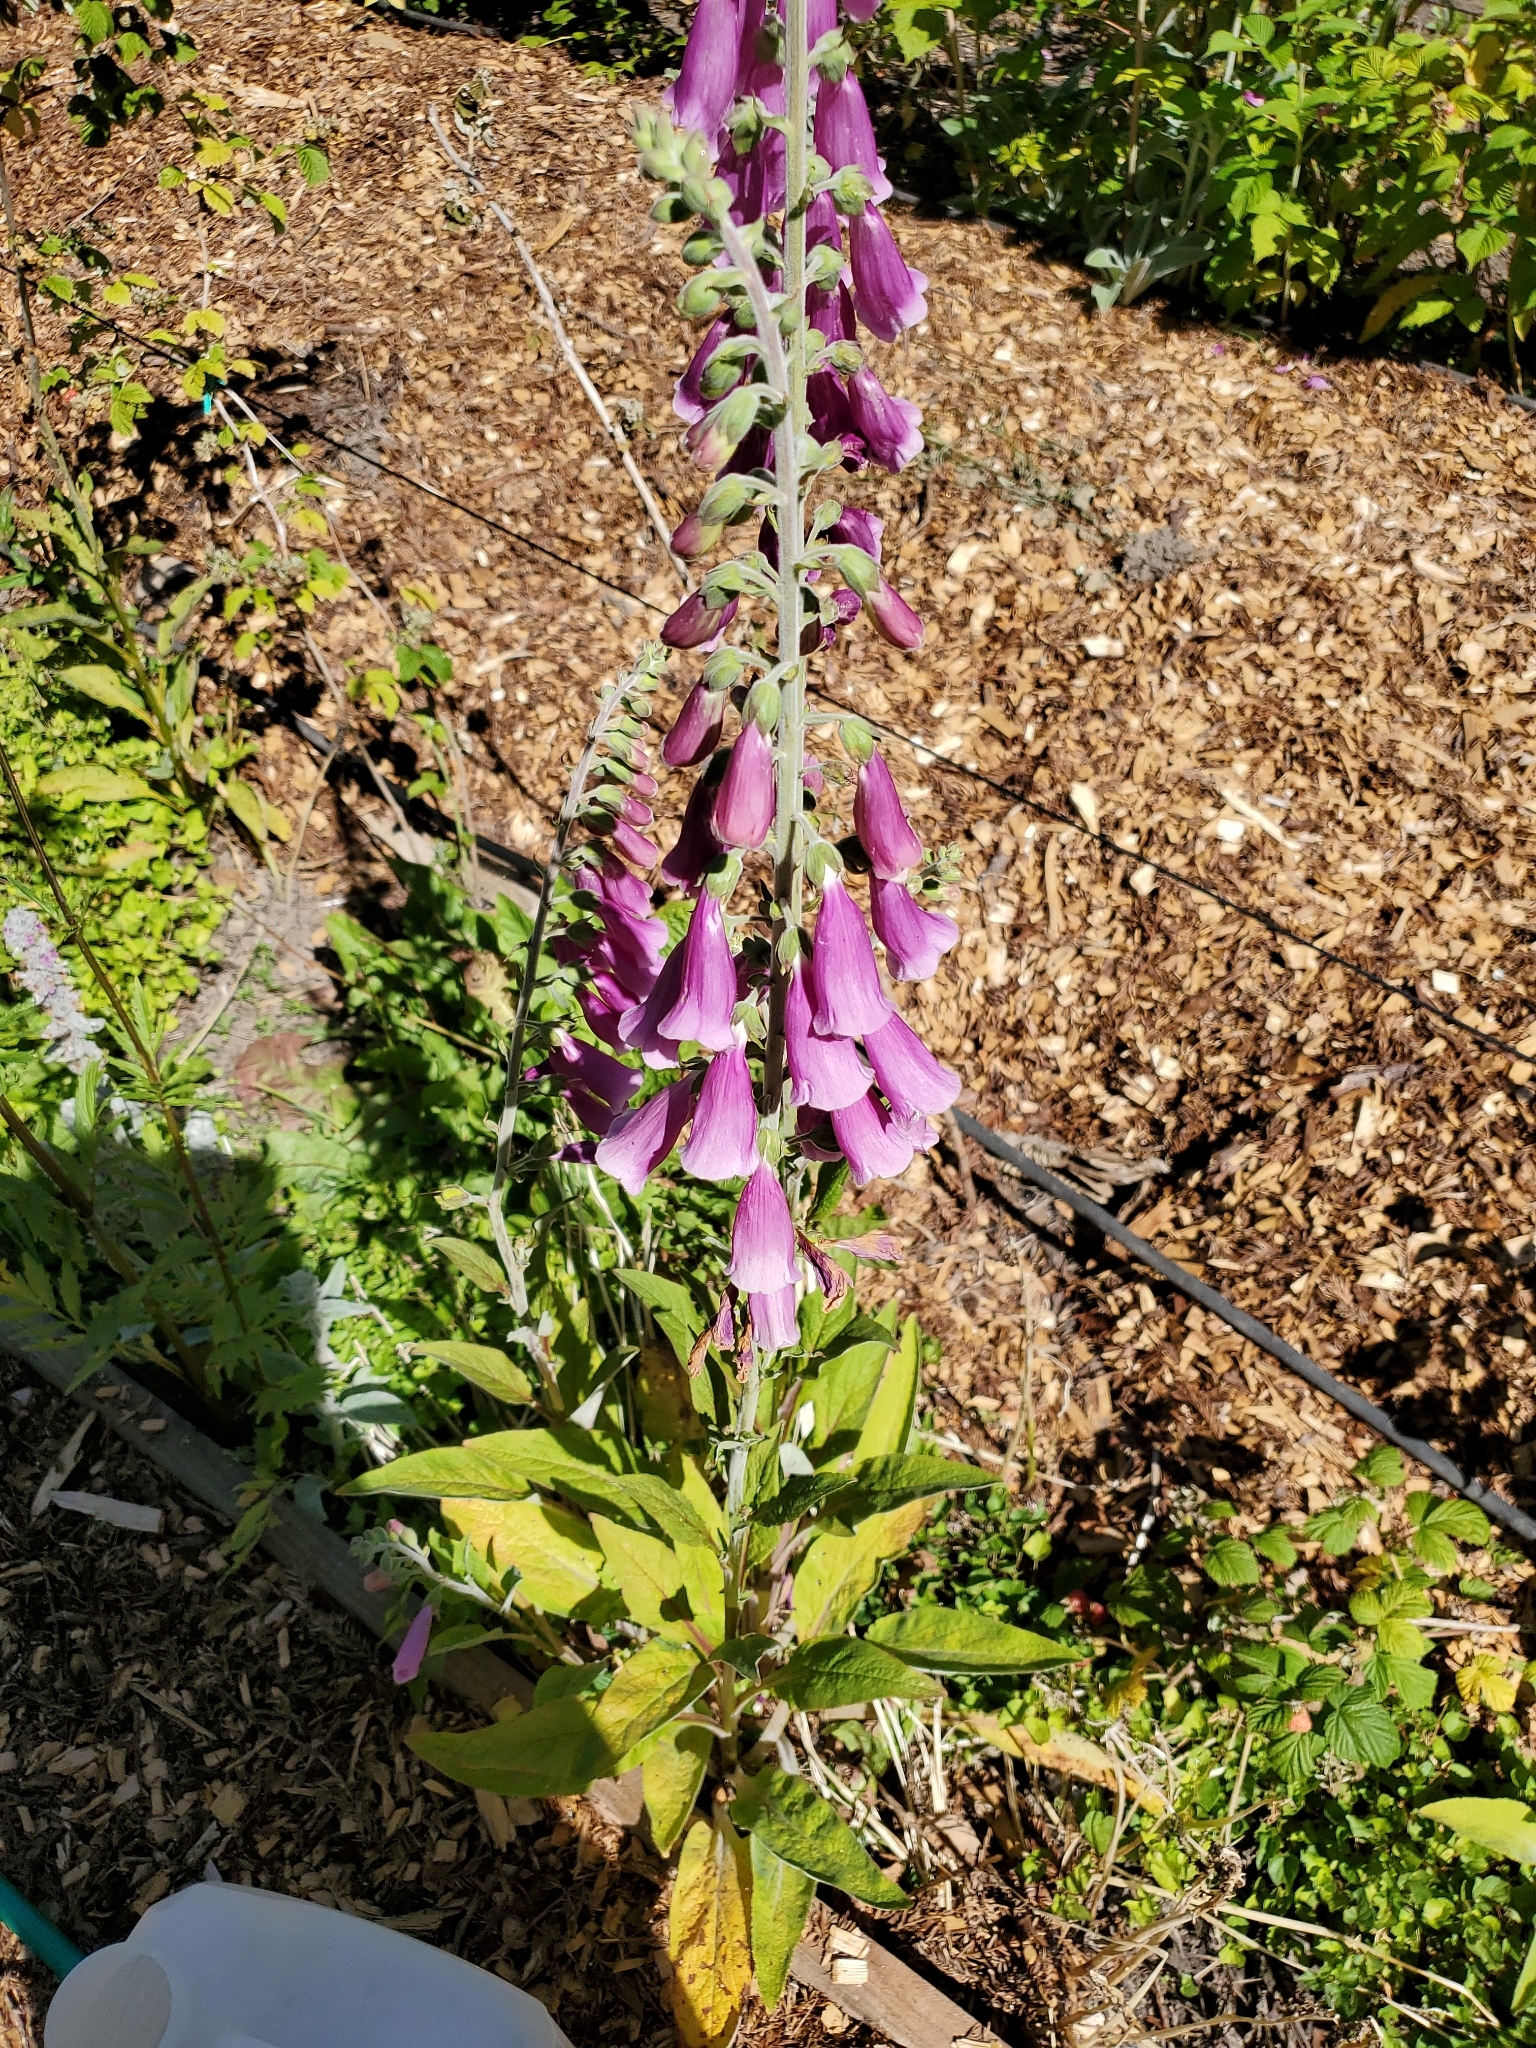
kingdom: Plantae
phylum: Tracheophyta
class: Magnoliopsida
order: Lamiales
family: Plantaginaceae
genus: Digitalis
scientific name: Digitalis purpurea
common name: Foxglove
